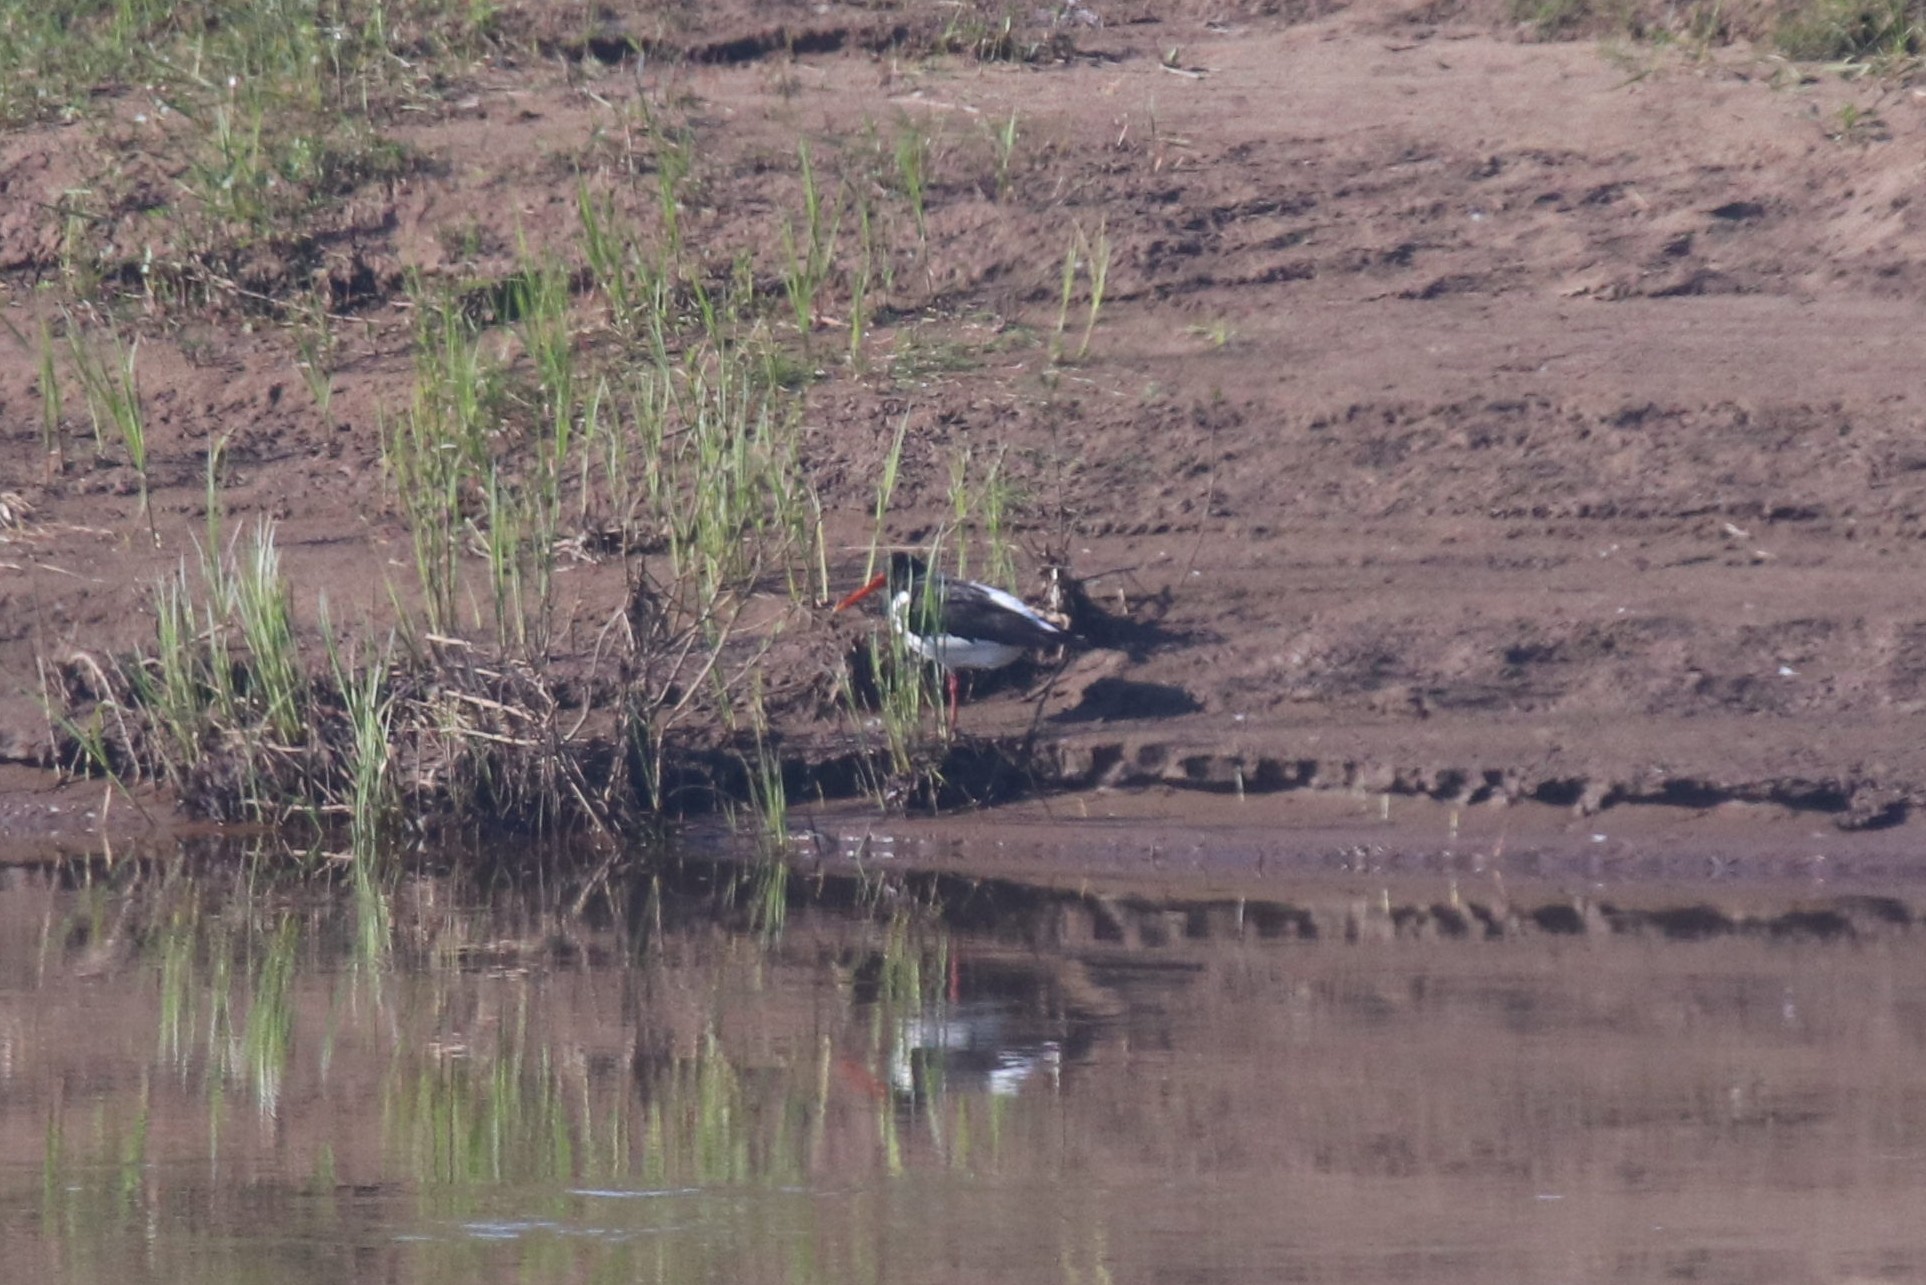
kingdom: Animalia
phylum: Chordata
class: Aves
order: Charadriiformes
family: Haematopodidae
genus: Haematopus
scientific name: Haematopus ostralegus
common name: Eurasian oystercatcher
